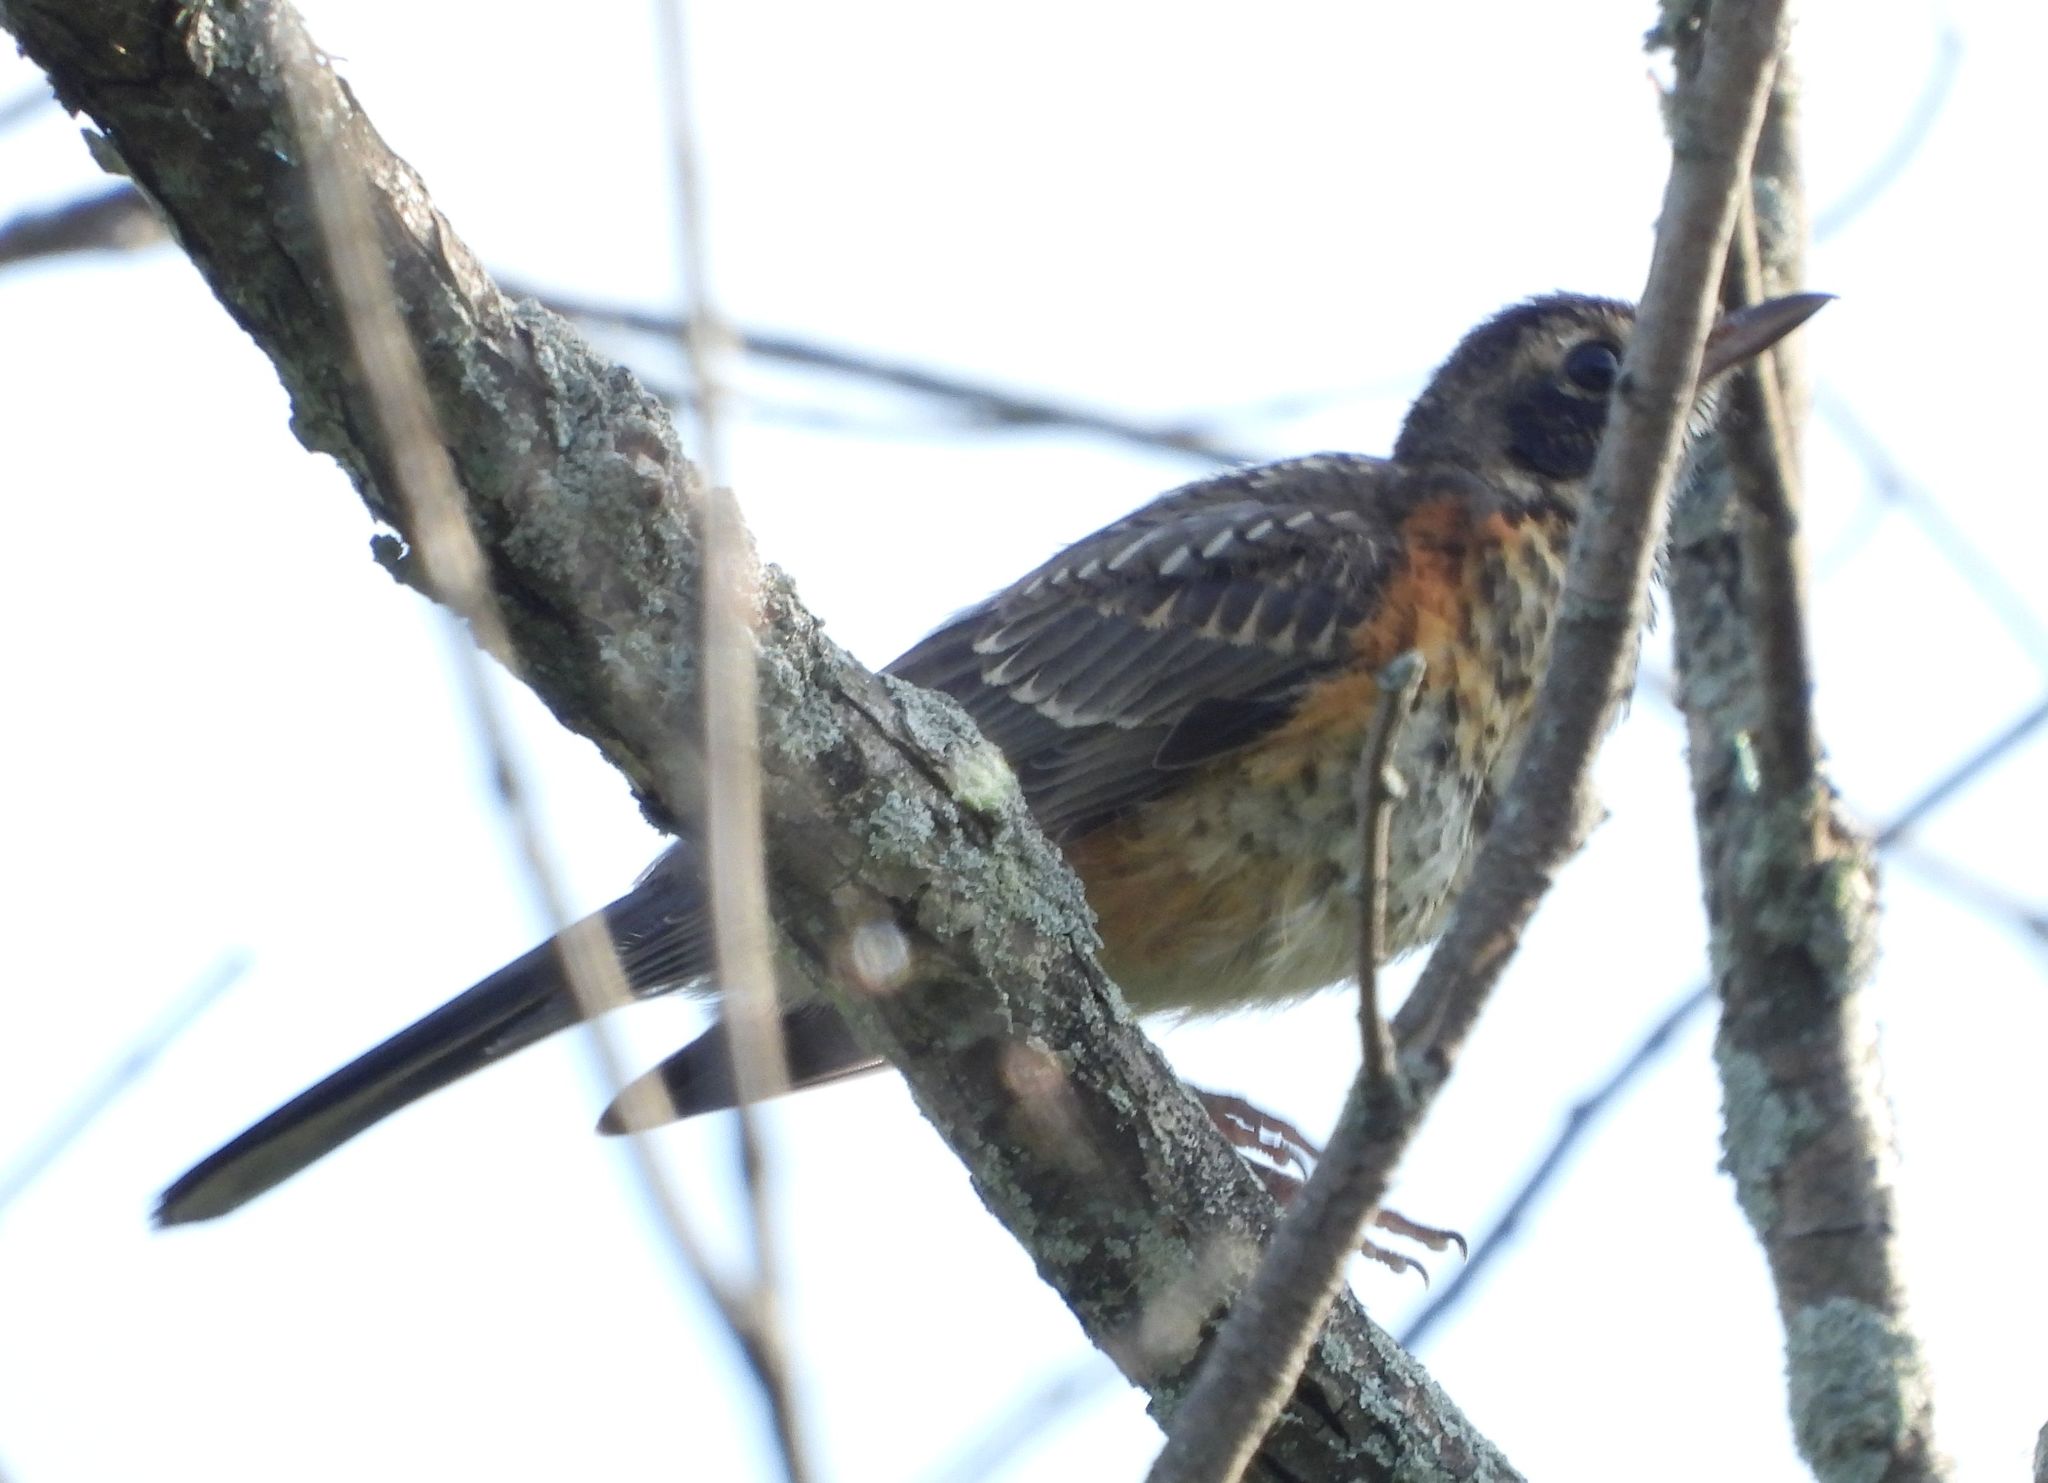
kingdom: Animalia
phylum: Chordata
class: Aves
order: Passeriformes
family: Turdidae
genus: Turdus
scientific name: Turdus migratorius
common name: American robin
